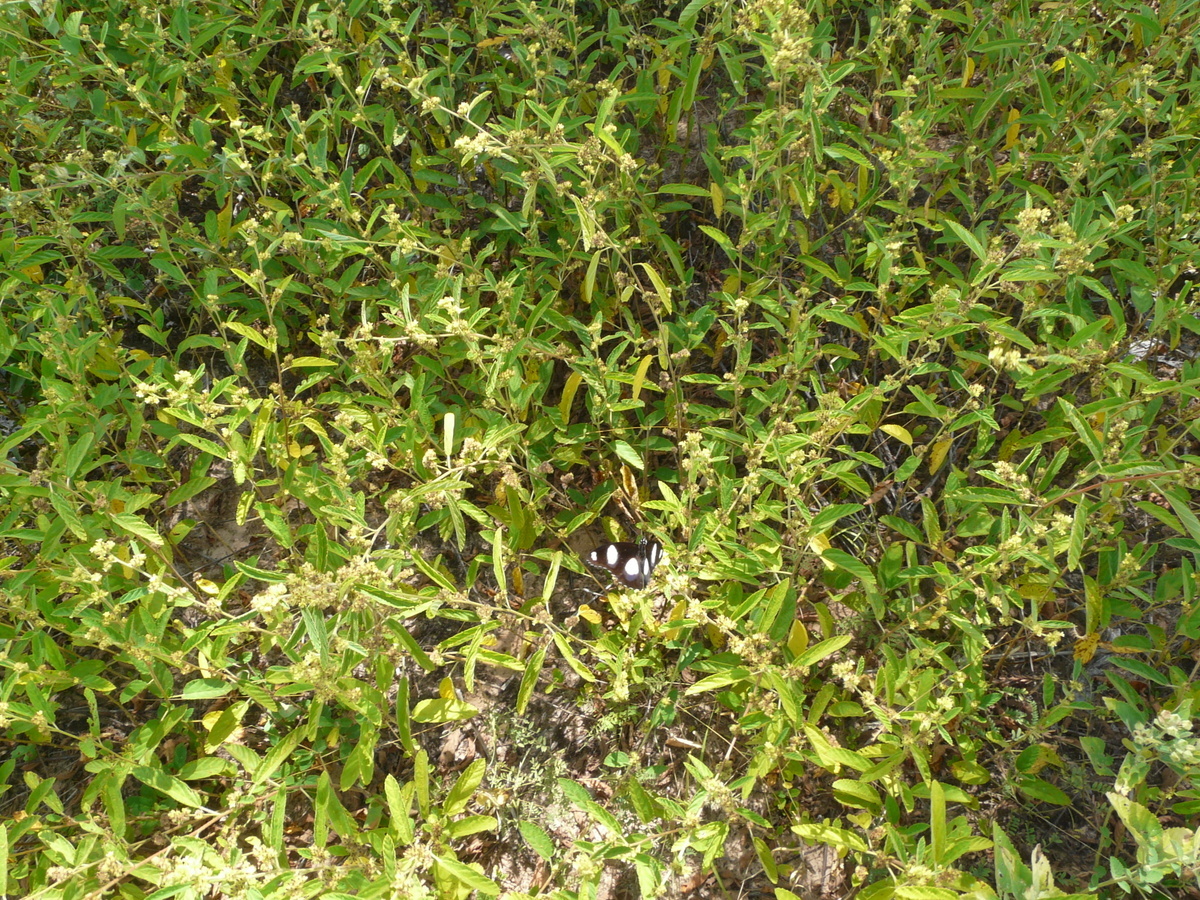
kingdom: Animalia
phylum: Arthropoda
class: Insecta
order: Lepidoptera
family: Nymphalidae
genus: Hypolimnas
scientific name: Hypolimnas misippus
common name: False plain tiger
